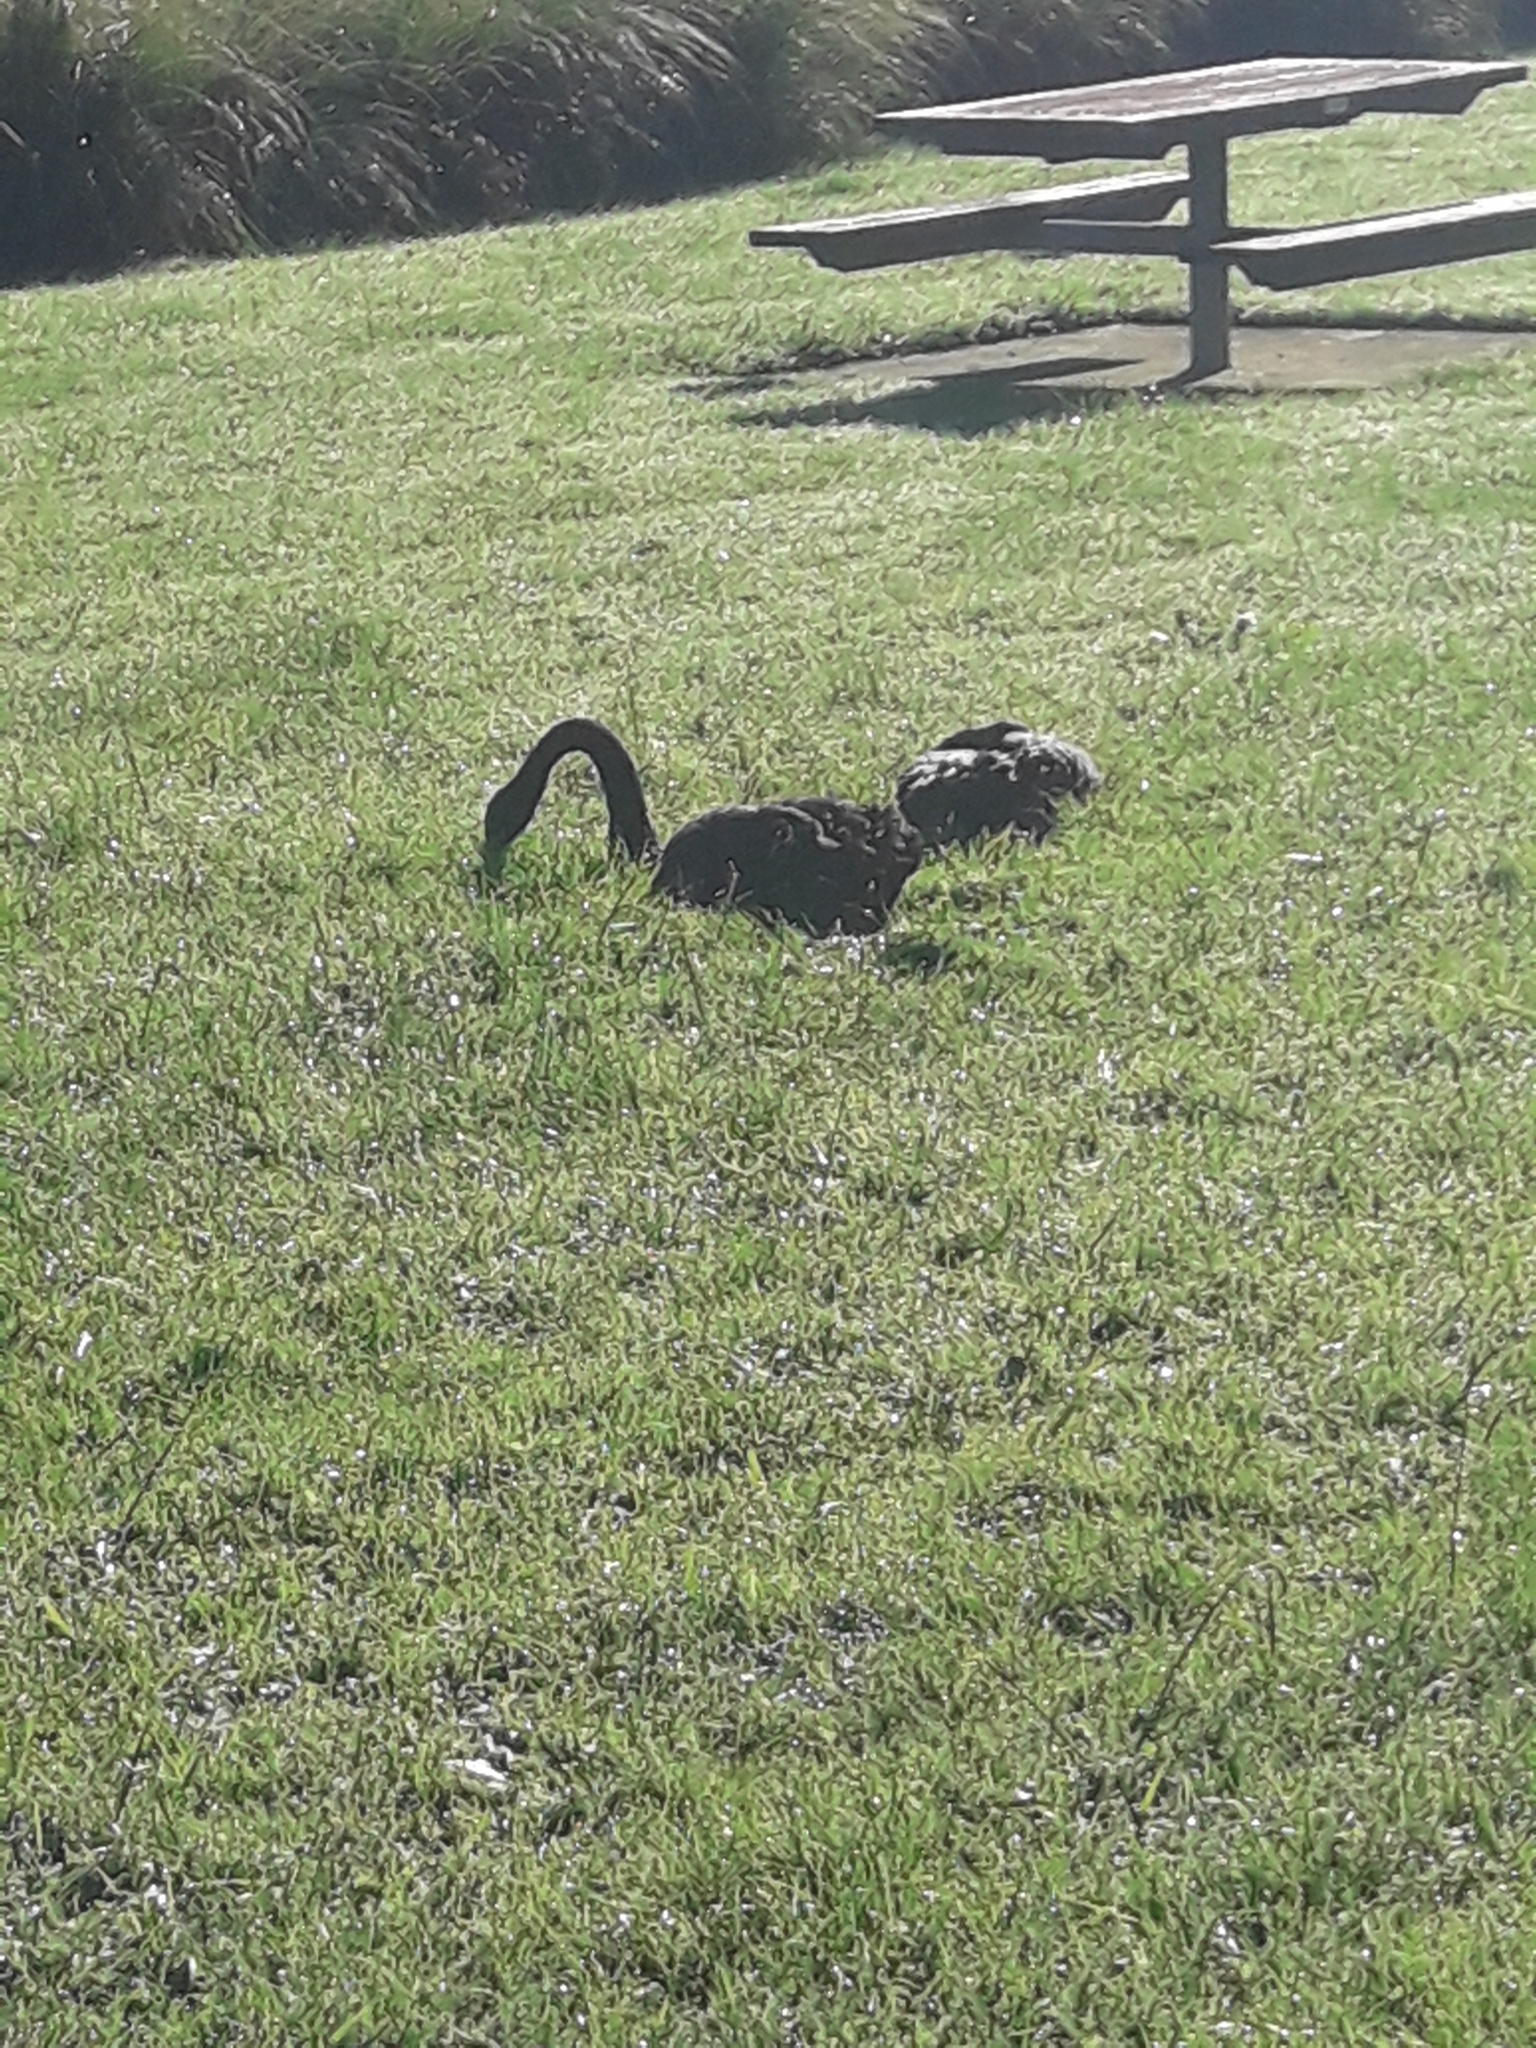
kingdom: Animalia
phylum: Chordata
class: Aves
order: Anseriformes
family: Anatidae
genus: Cygnus
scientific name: Cygnus atratus
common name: Black swan
